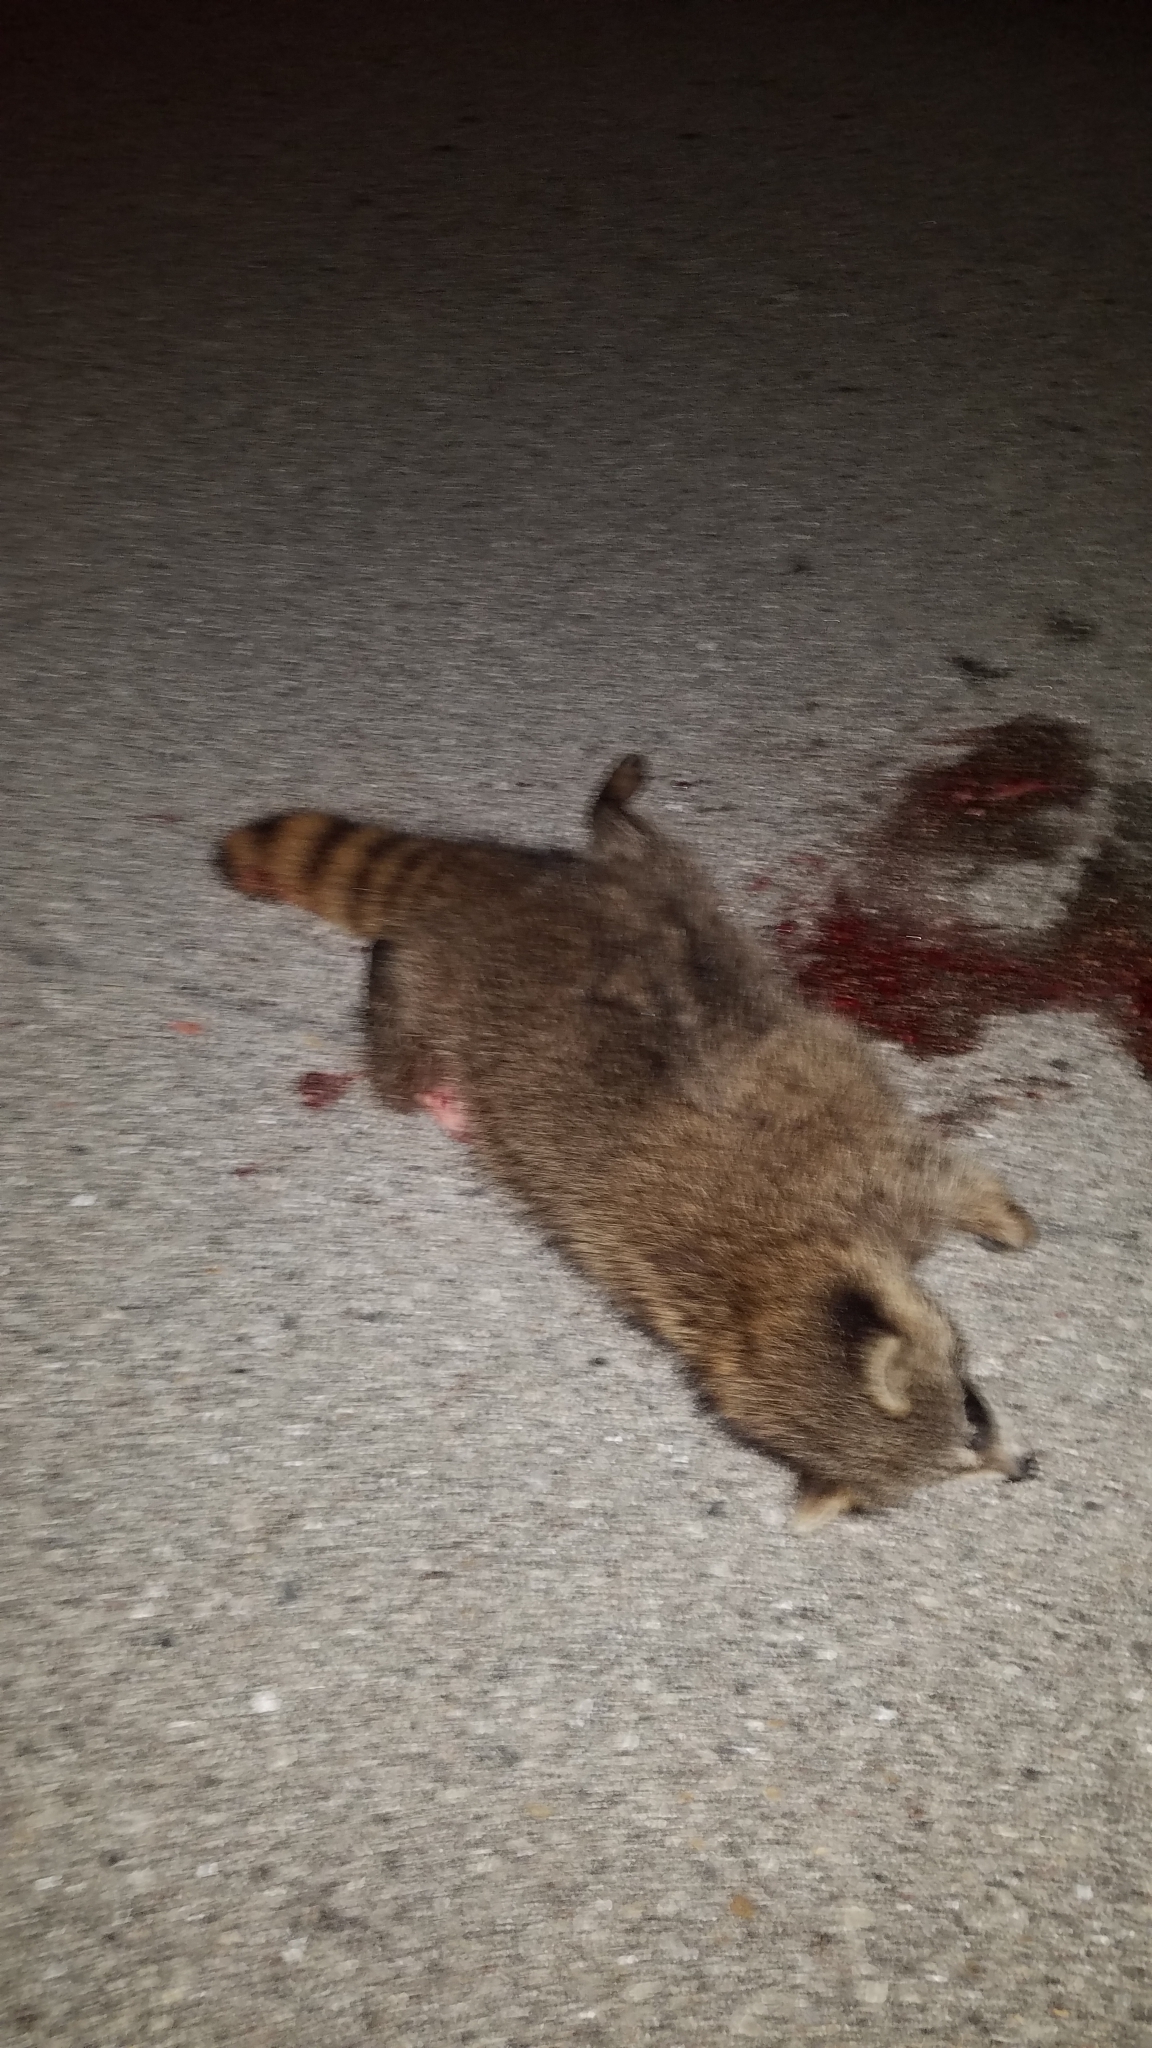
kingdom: Animalia
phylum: Chordata
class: Mammalia
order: Carnivora
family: Procyonidae
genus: Procyon
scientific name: Procyon lotor
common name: Raccoon
